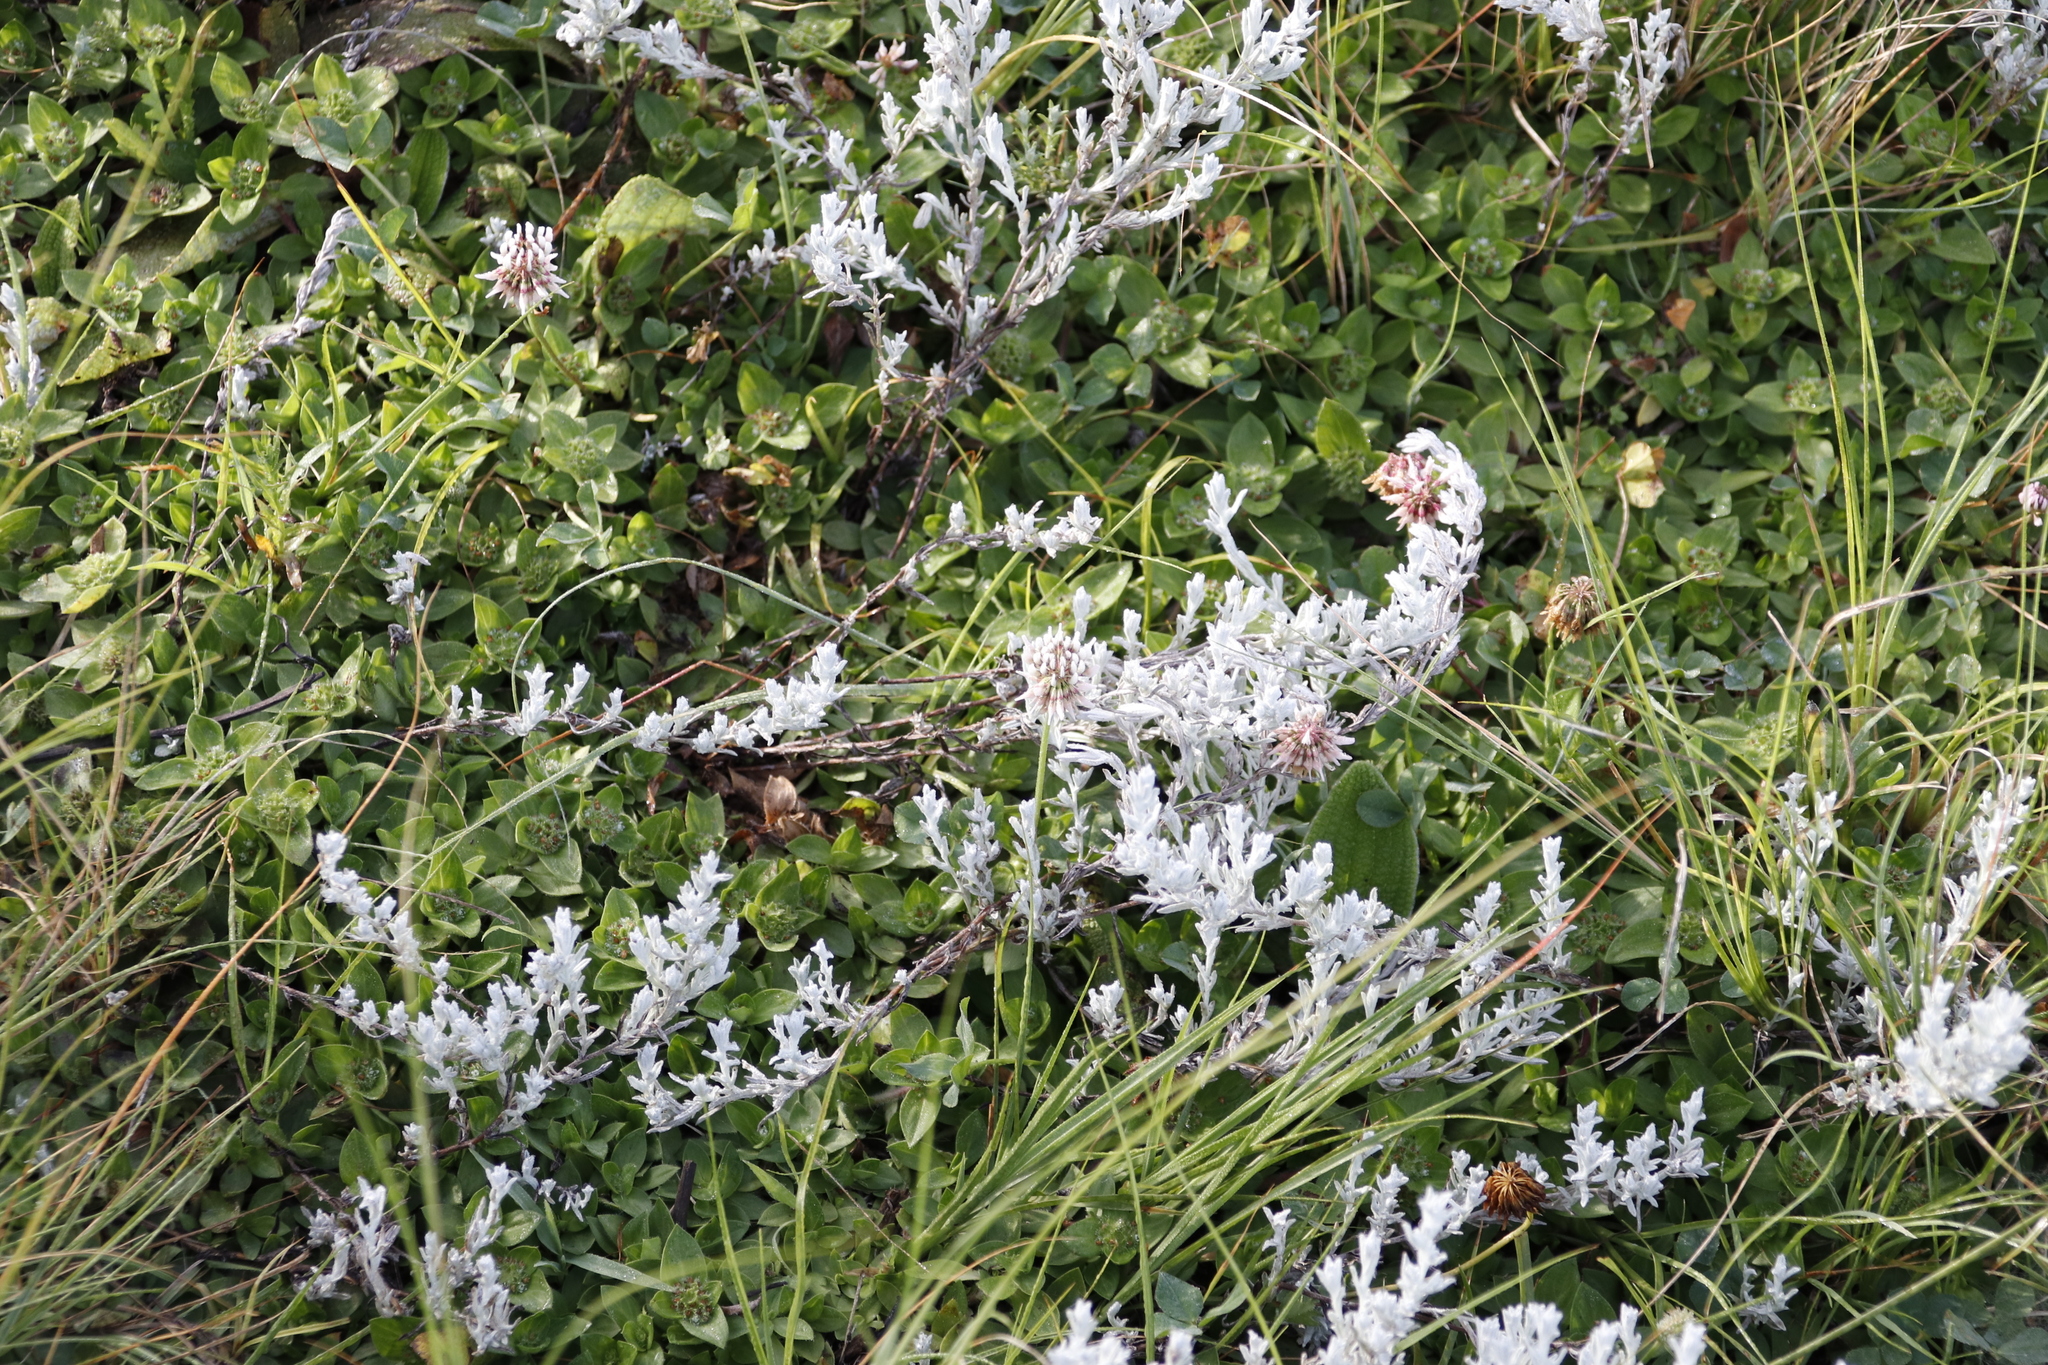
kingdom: Plantae
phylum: Tracheophyta
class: Magnoliopsida
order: Fabales
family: Fabaceae
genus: Trifolium
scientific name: Trifolium repens
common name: White clover
